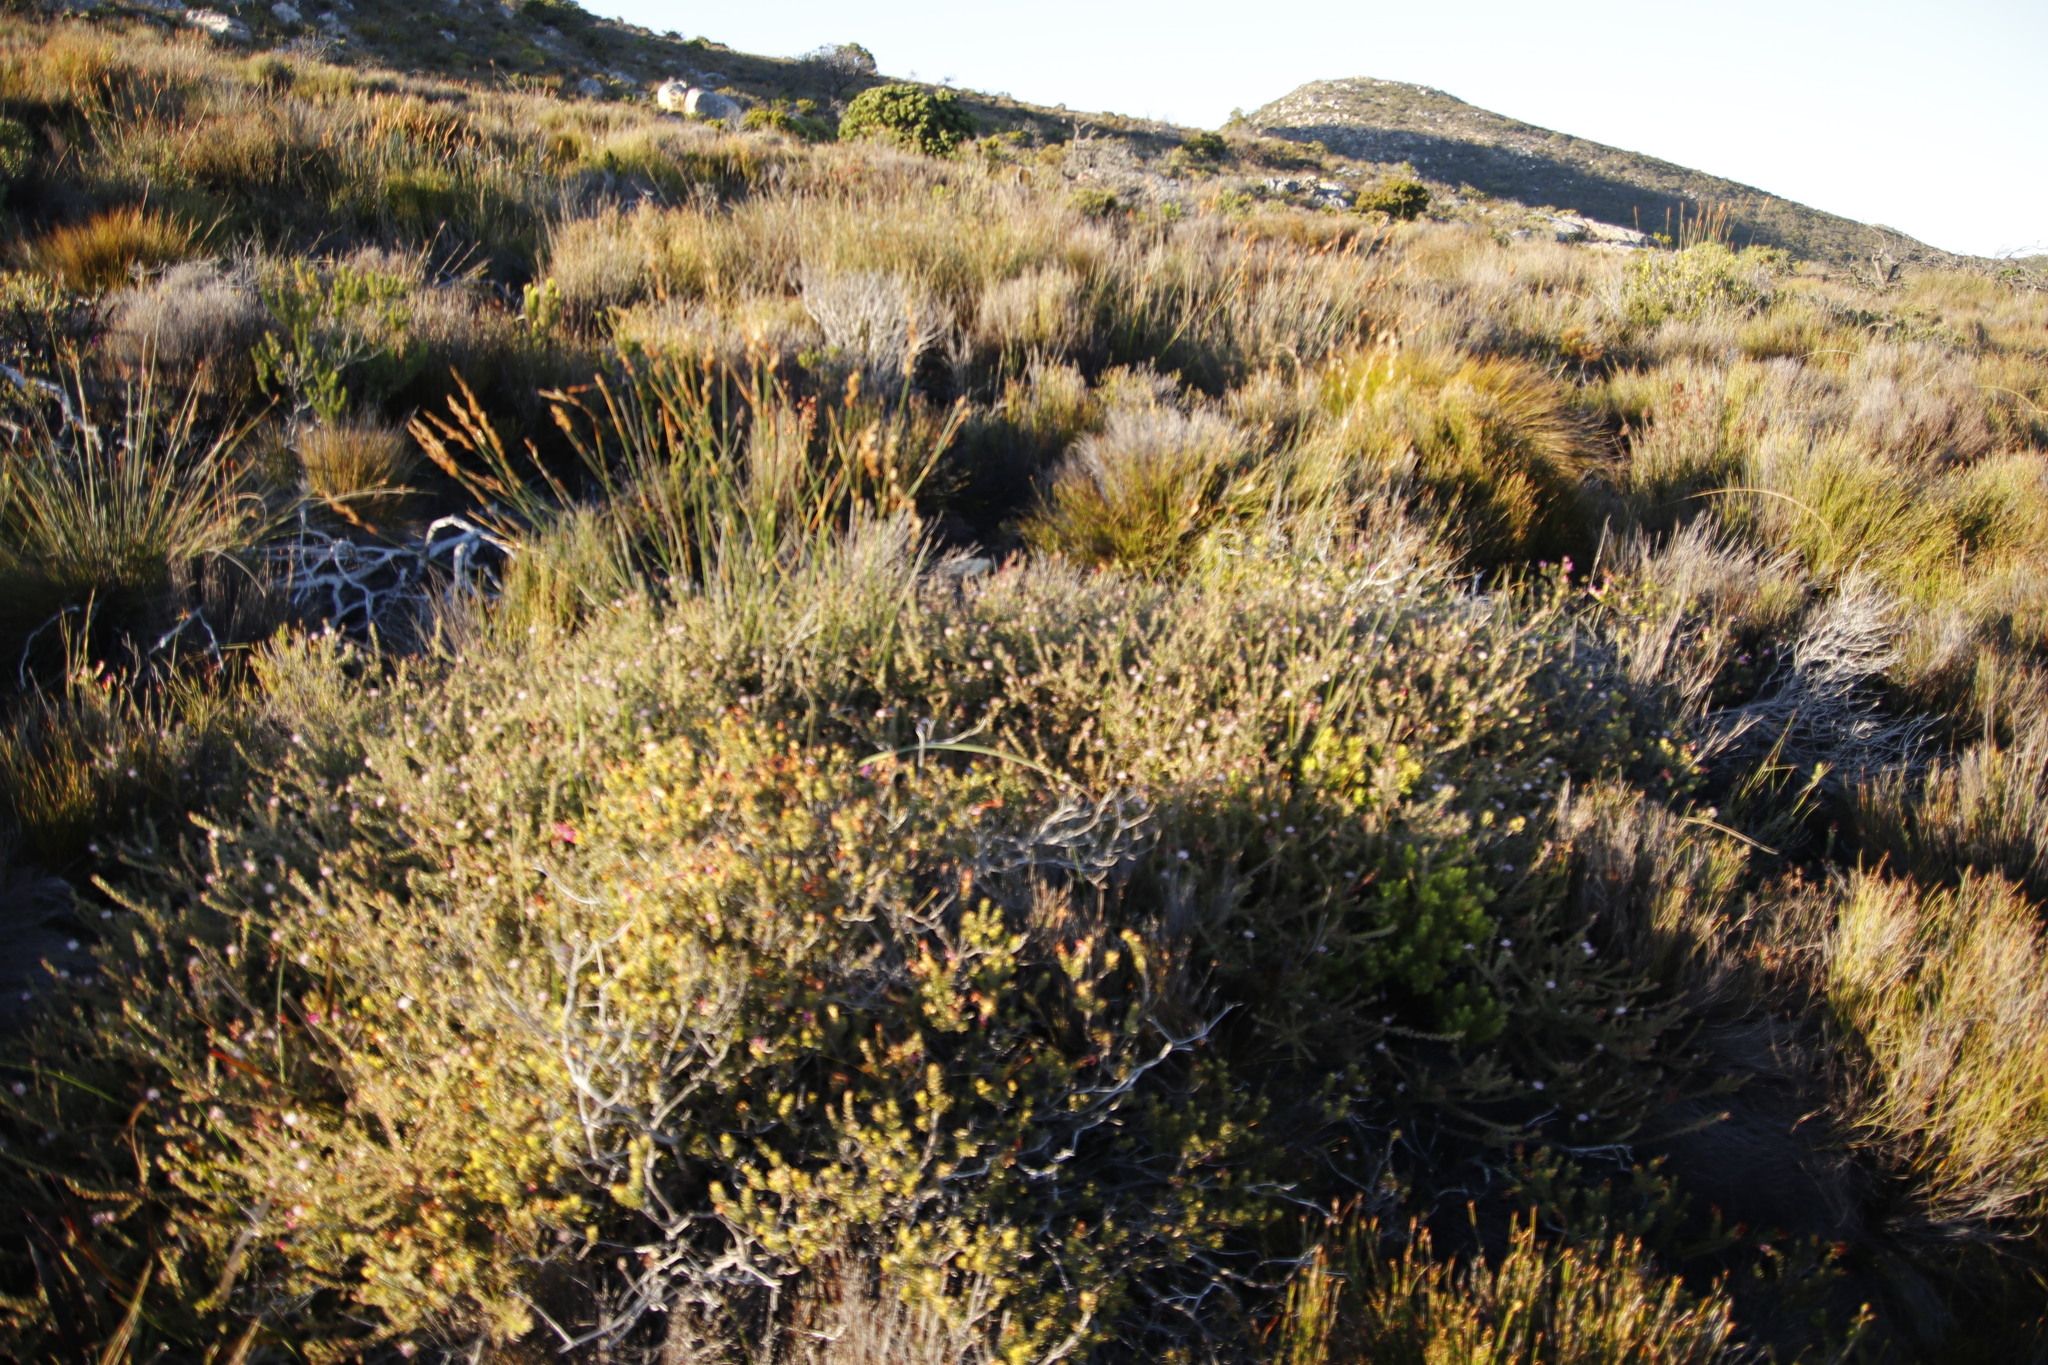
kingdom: Plantae
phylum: Tracheophyta
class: Magnoliopsida
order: Proteales
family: Proteaceae
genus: Diastella
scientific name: Diastella divaricata
